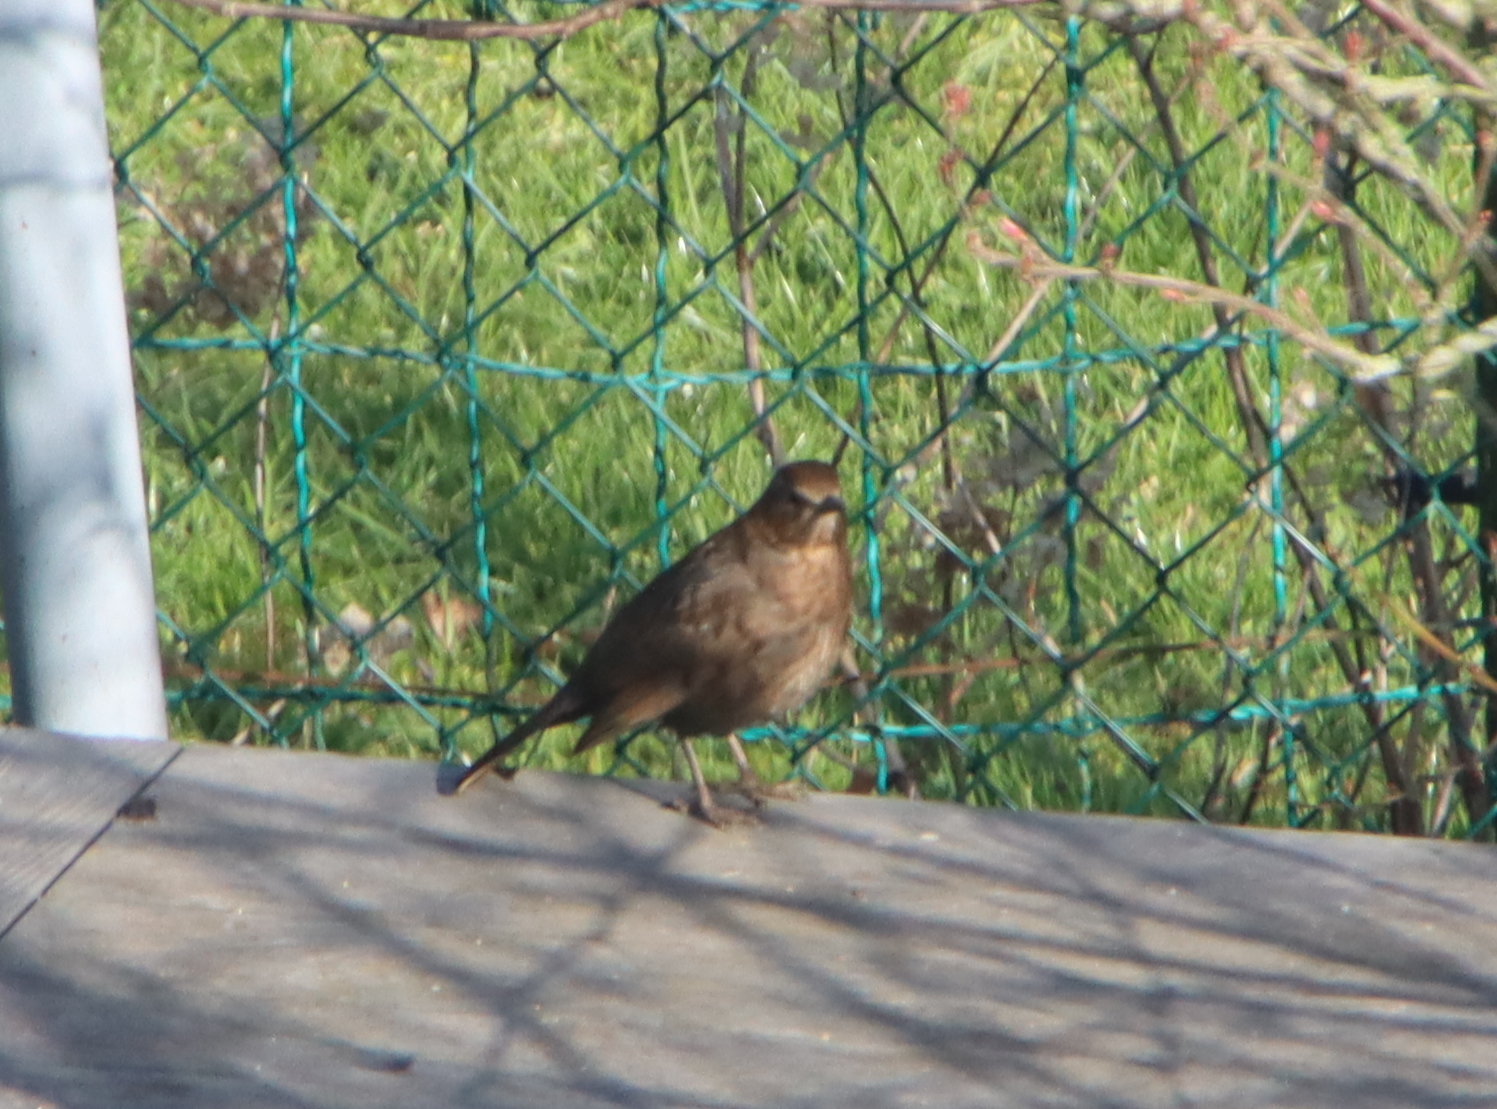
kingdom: Animalia
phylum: Chordata
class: Aves
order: Passeriformes
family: Turdidae
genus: Turdus
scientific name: Turdus merula
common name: Common blackbird
